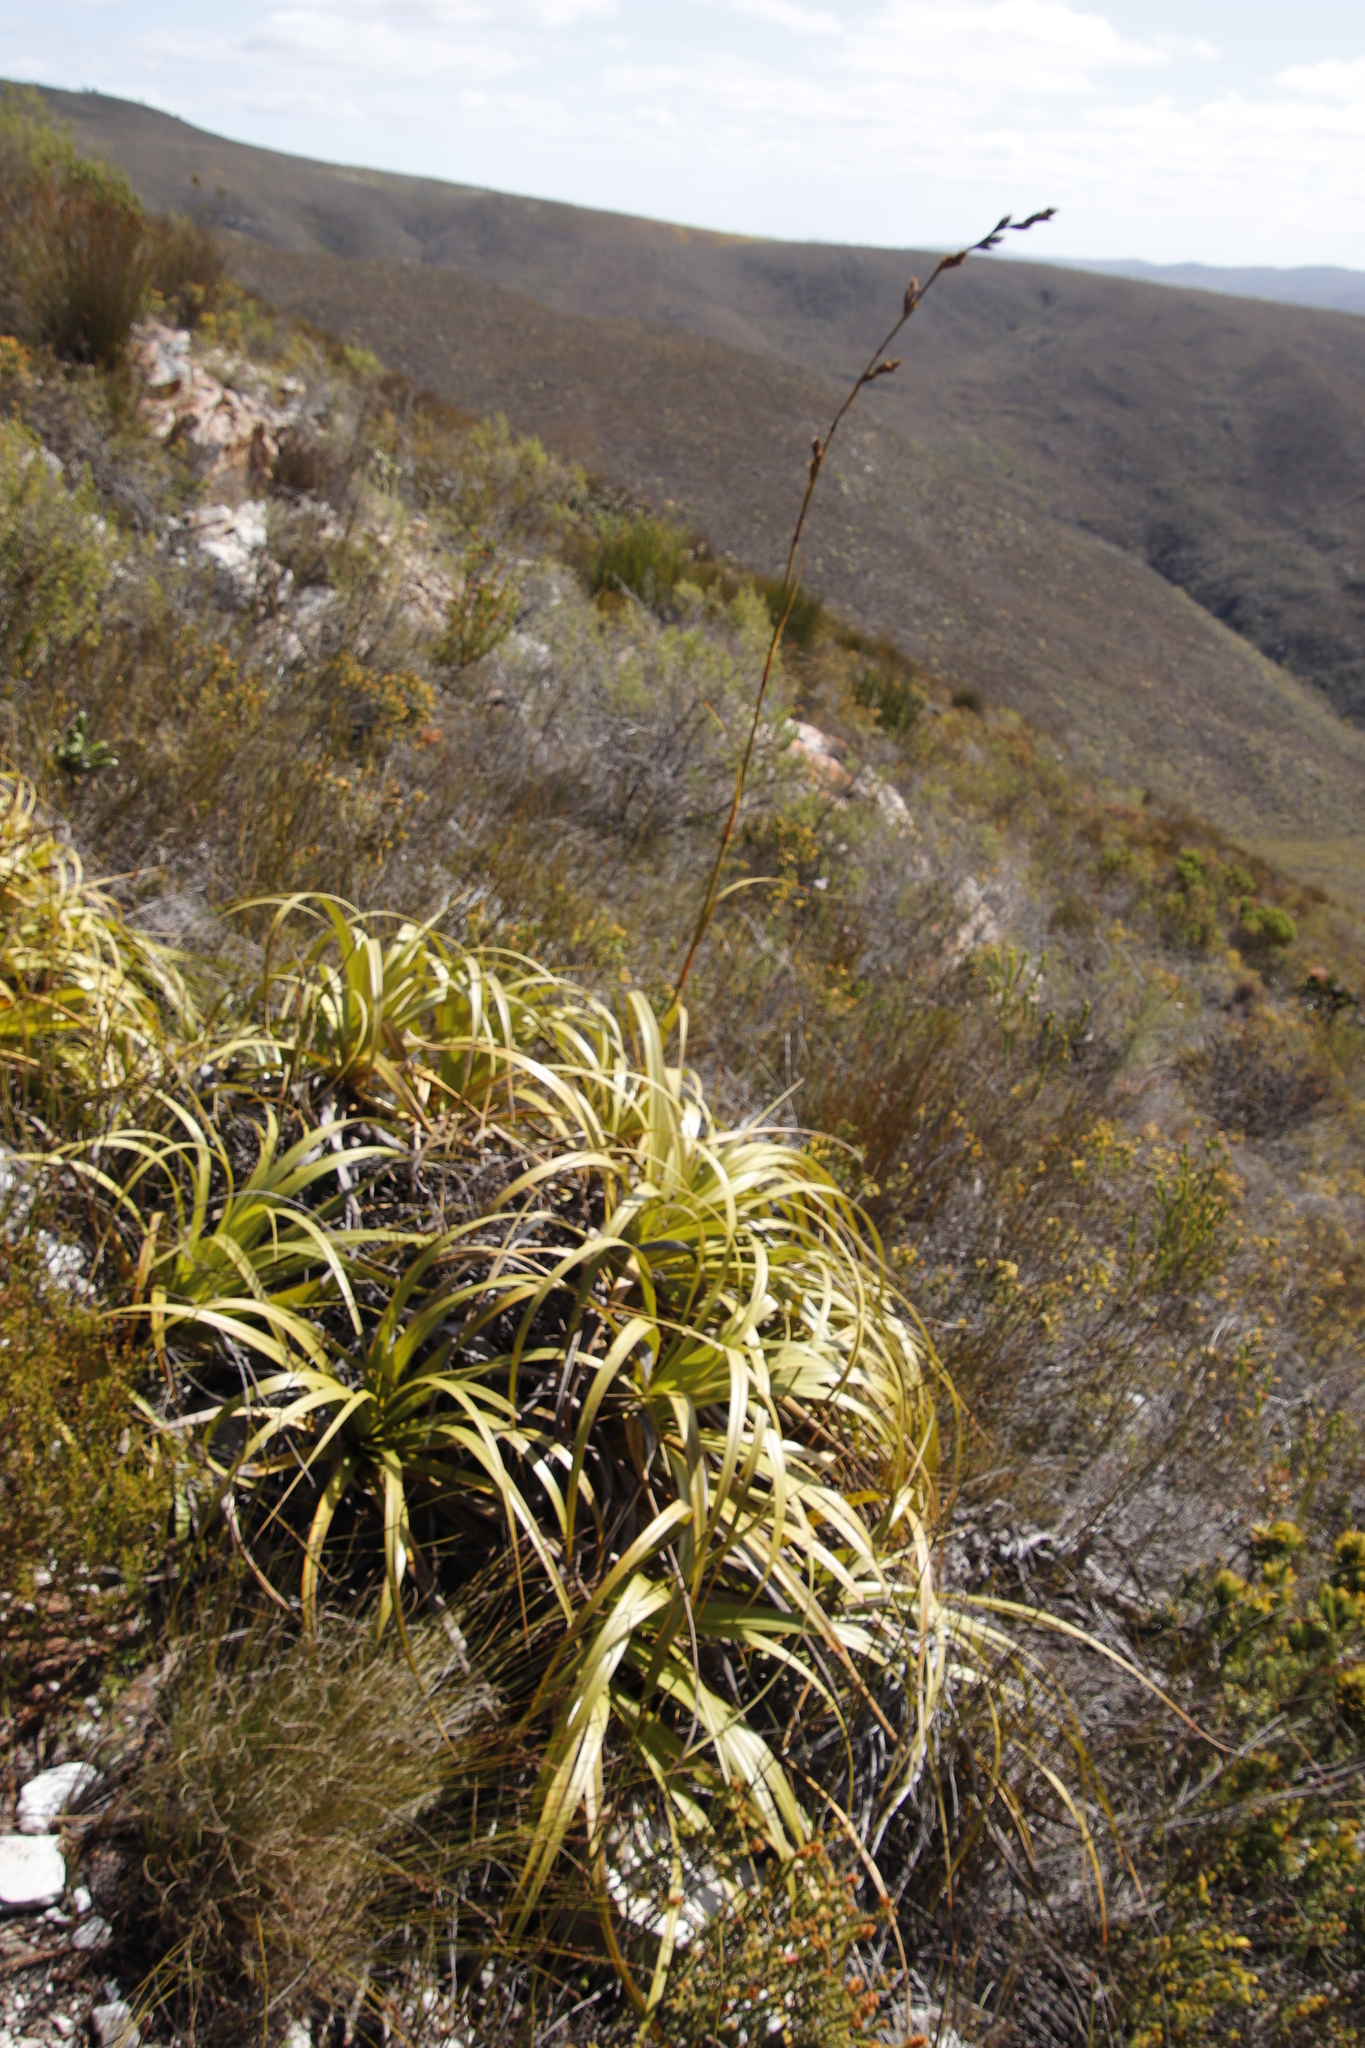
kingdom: Plantae
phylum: Tracheophyta
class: Liliopsida
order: Poales
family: Cyperaceae
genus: Tetraria
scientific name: Tetraria thermalis
